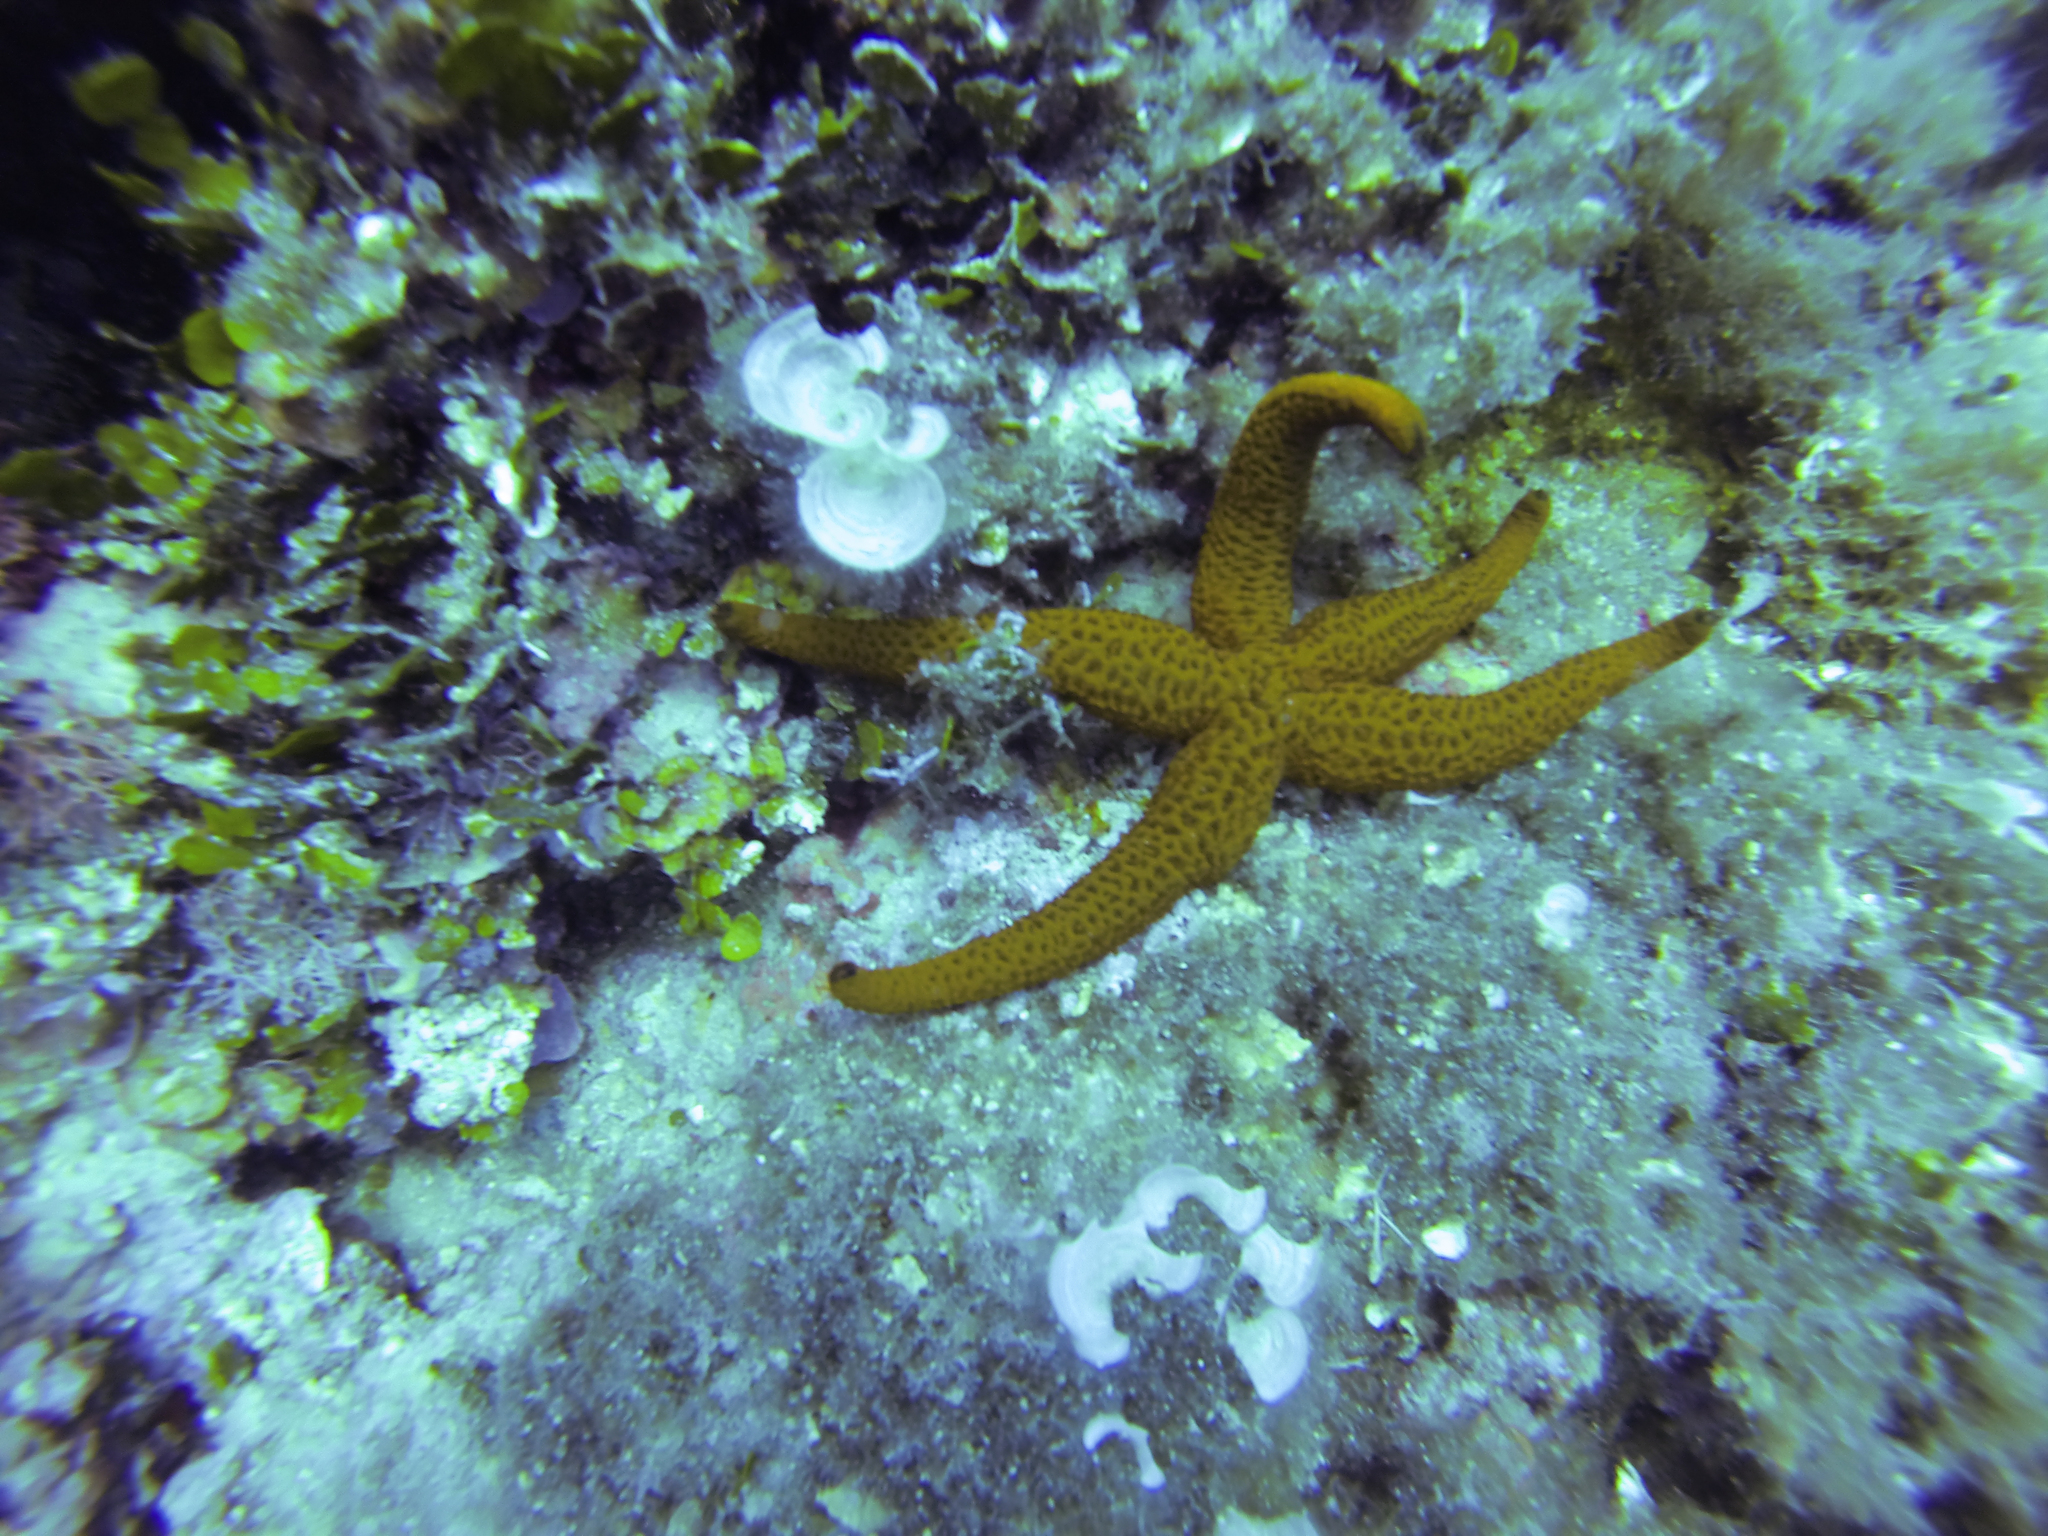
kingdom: Animalia
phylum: Echinodermata
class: Asteroidea
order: Spinulosida
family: Echinasteridae
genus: Echinaster
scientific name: Echinaster sepositus
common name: Red starfish
